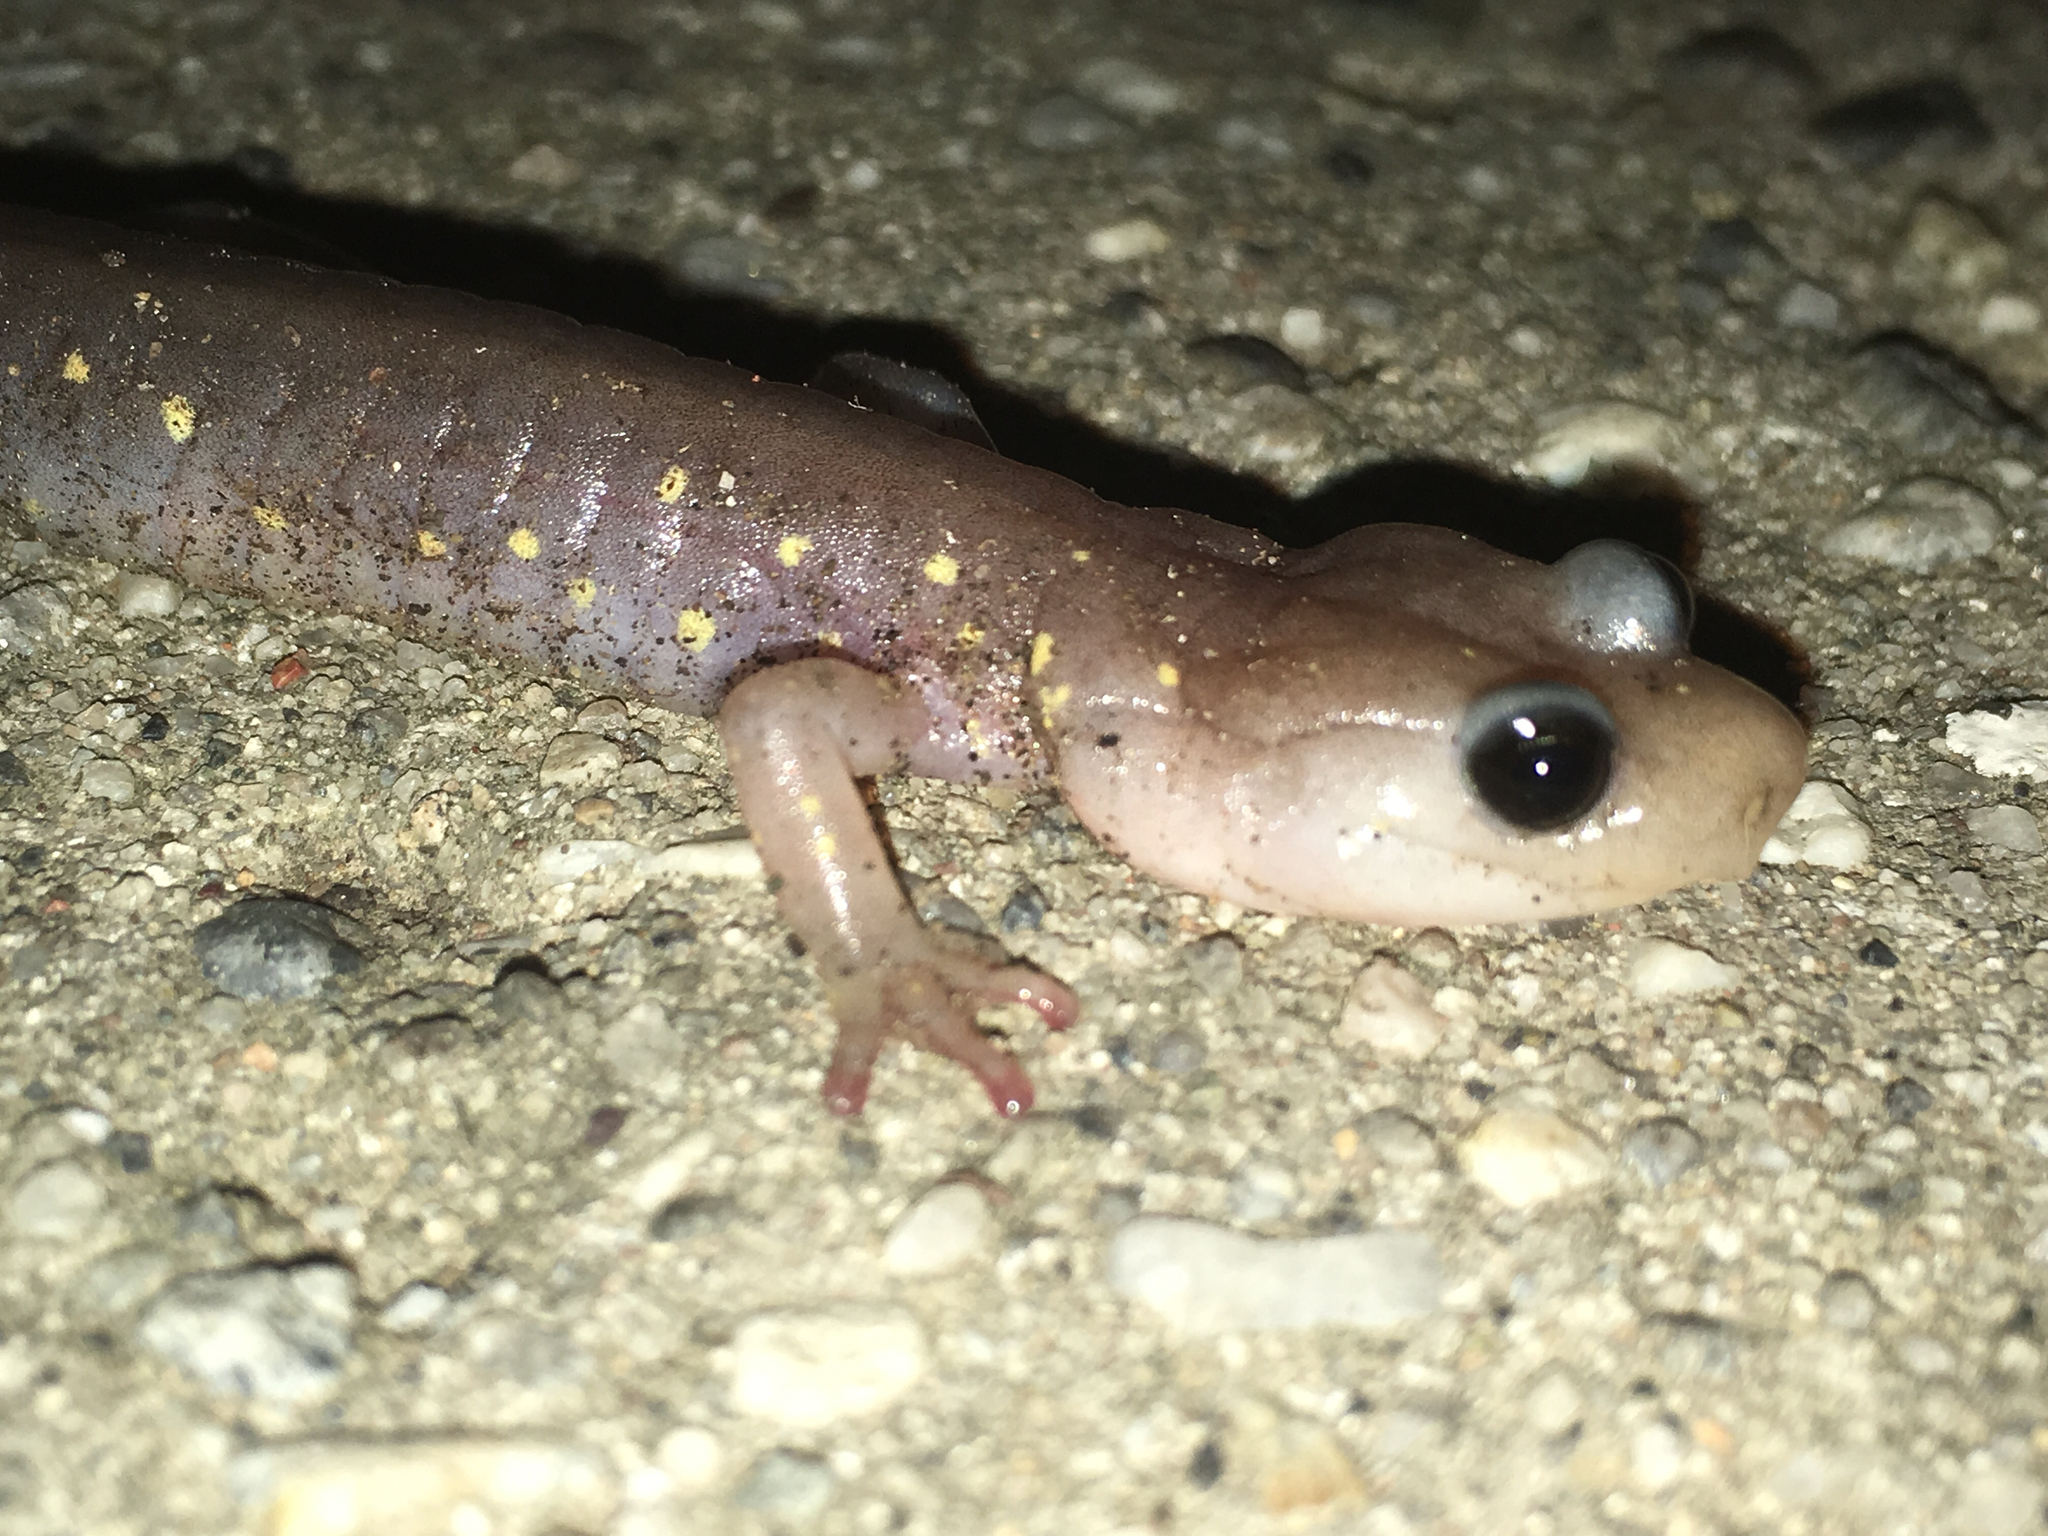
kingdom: Animalia
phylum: Chordata
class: Amphibia
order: Caudata
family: Plethodontidae
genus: Aneides
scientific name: Aneides lugubris
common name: Arboreal salamander
